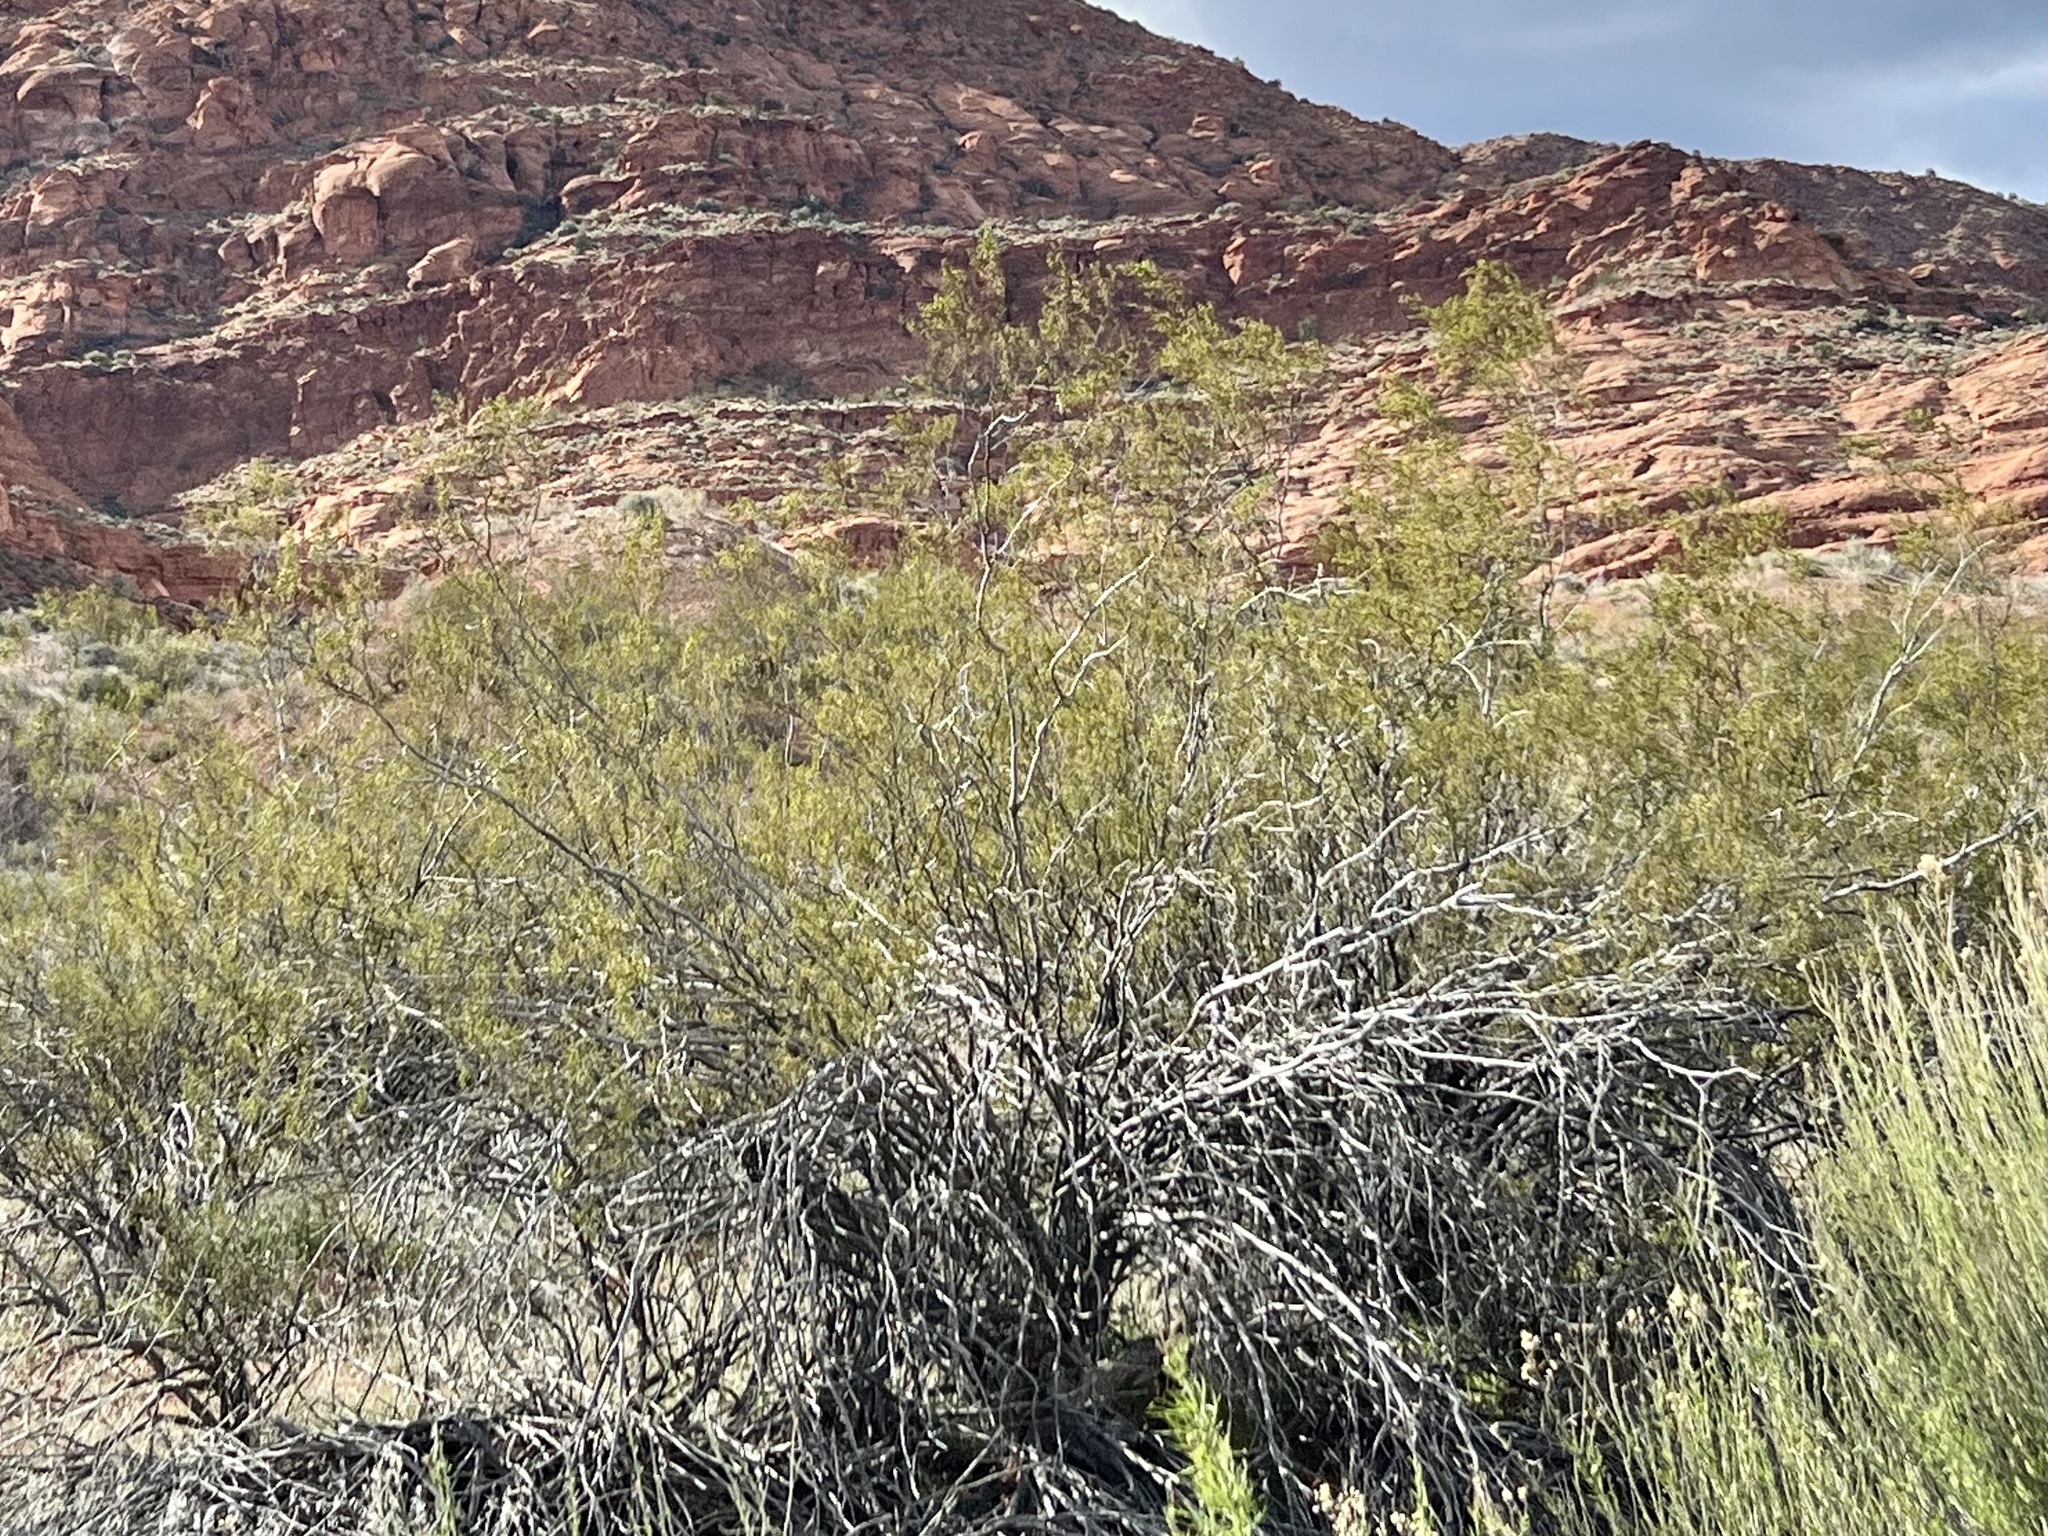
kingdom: Plantae
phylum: Tracheophyta
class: Magnoliopsida
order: Zygophyllales
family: Zygophyllaceae
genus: Larrea
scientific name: Larrea tridentata
